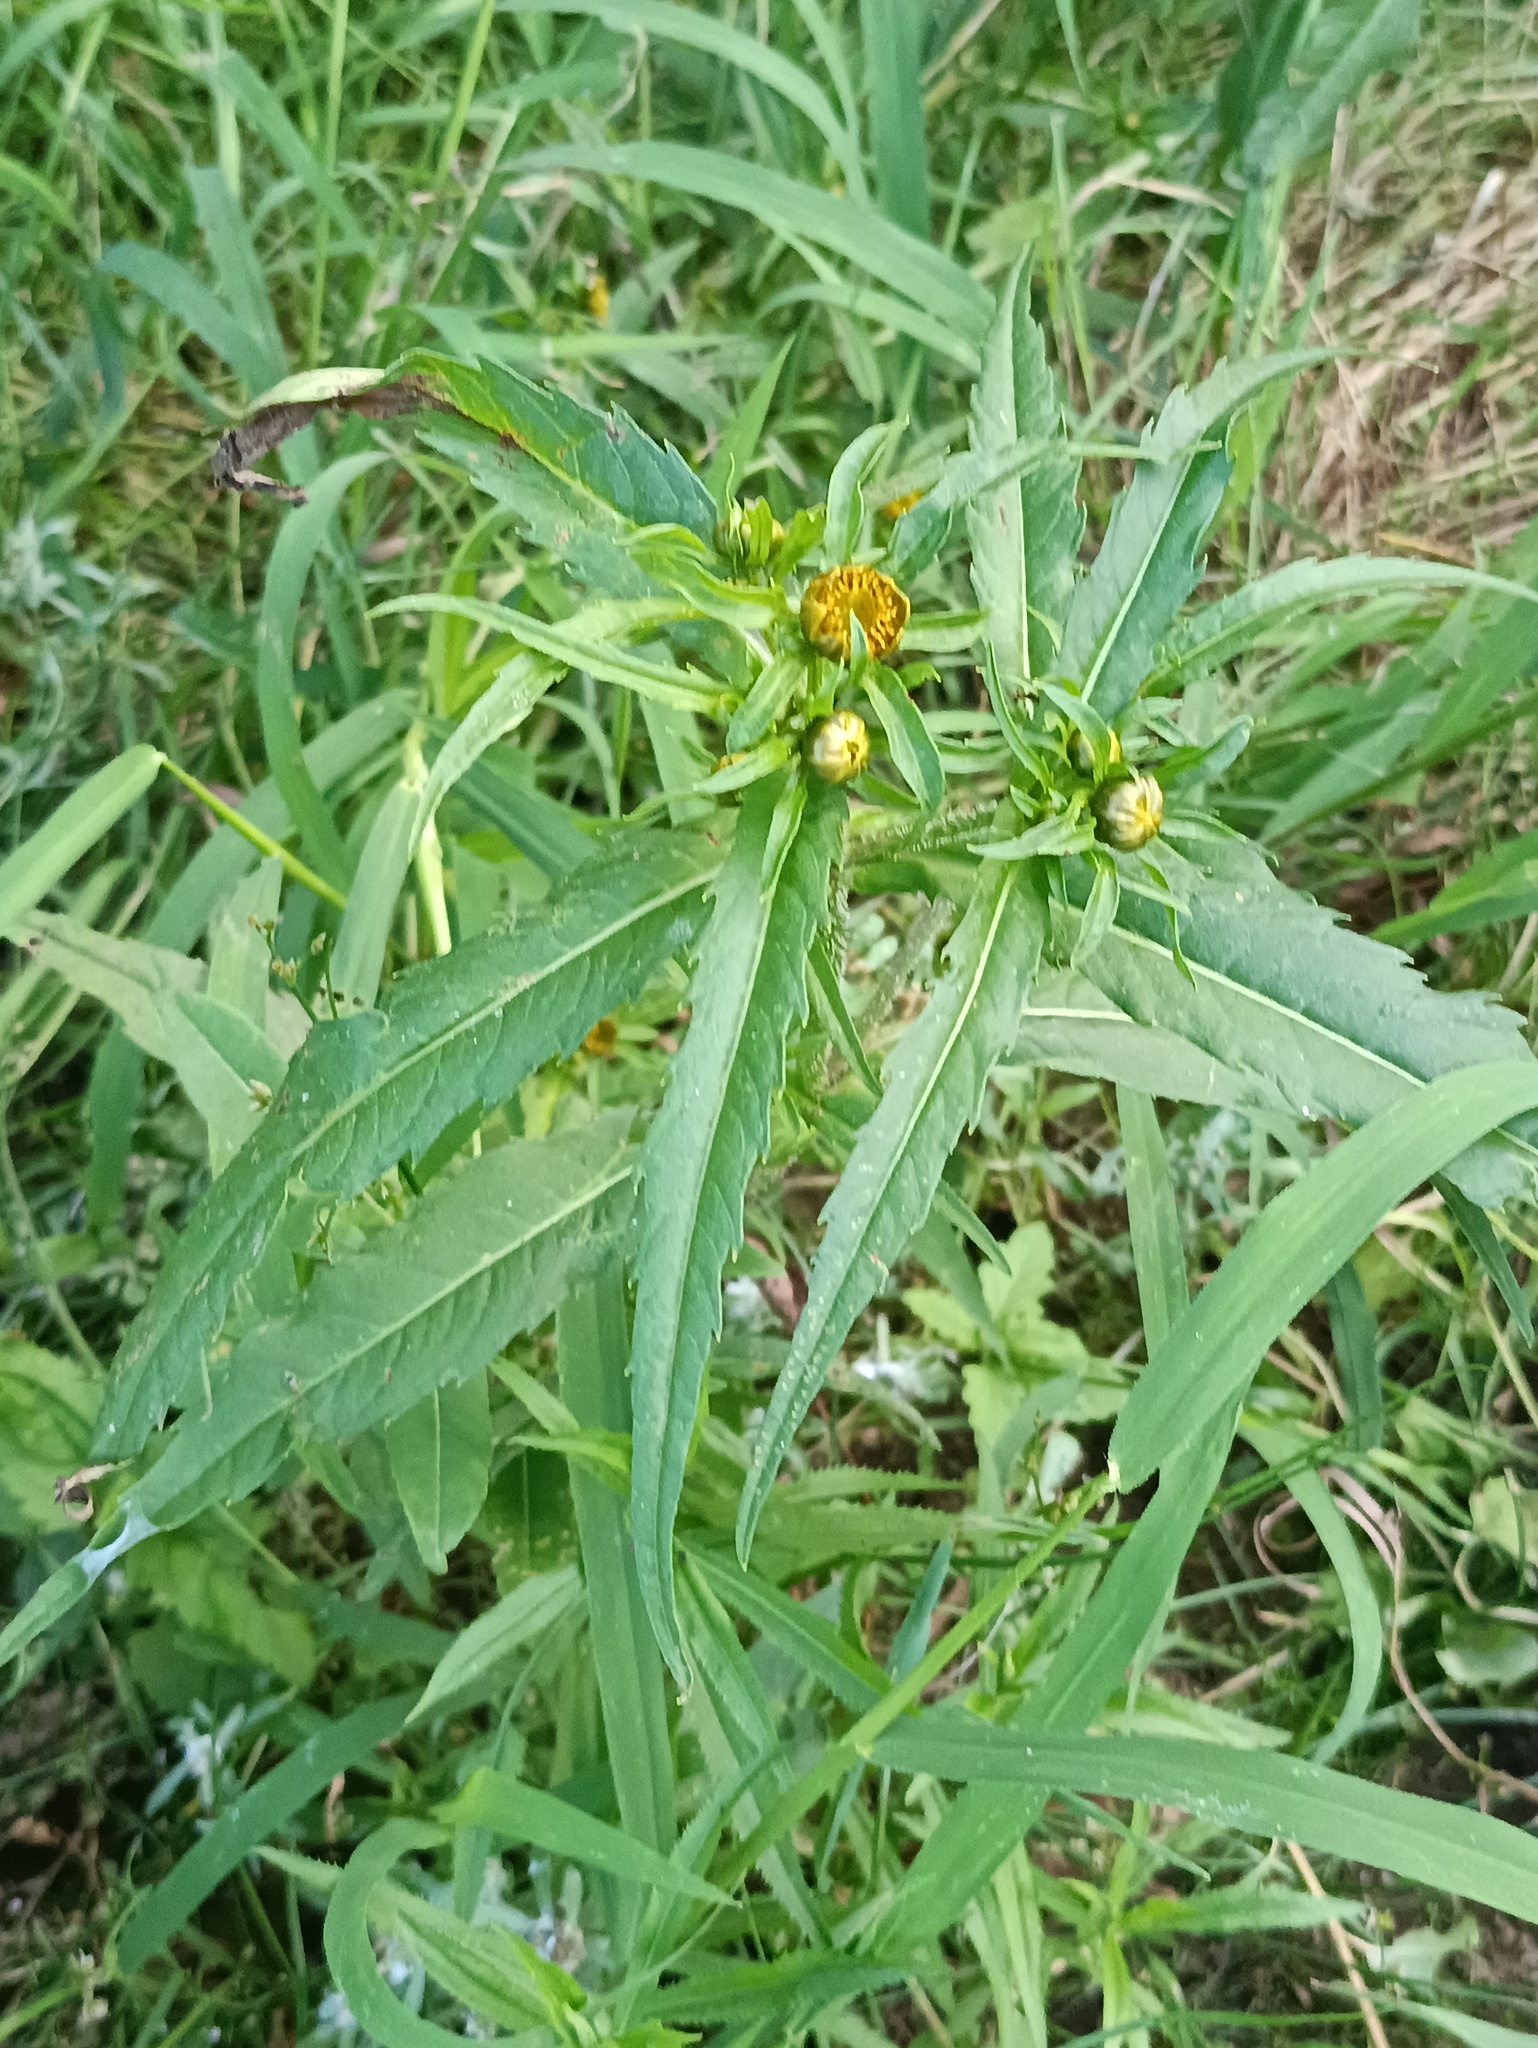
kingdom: Plantae
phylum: Tracheophyta
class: Magnoliopsida
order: Asterales
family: Asteraceae
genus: Bidens
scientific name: Bidens cernua
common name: Nodding bur-marigold
